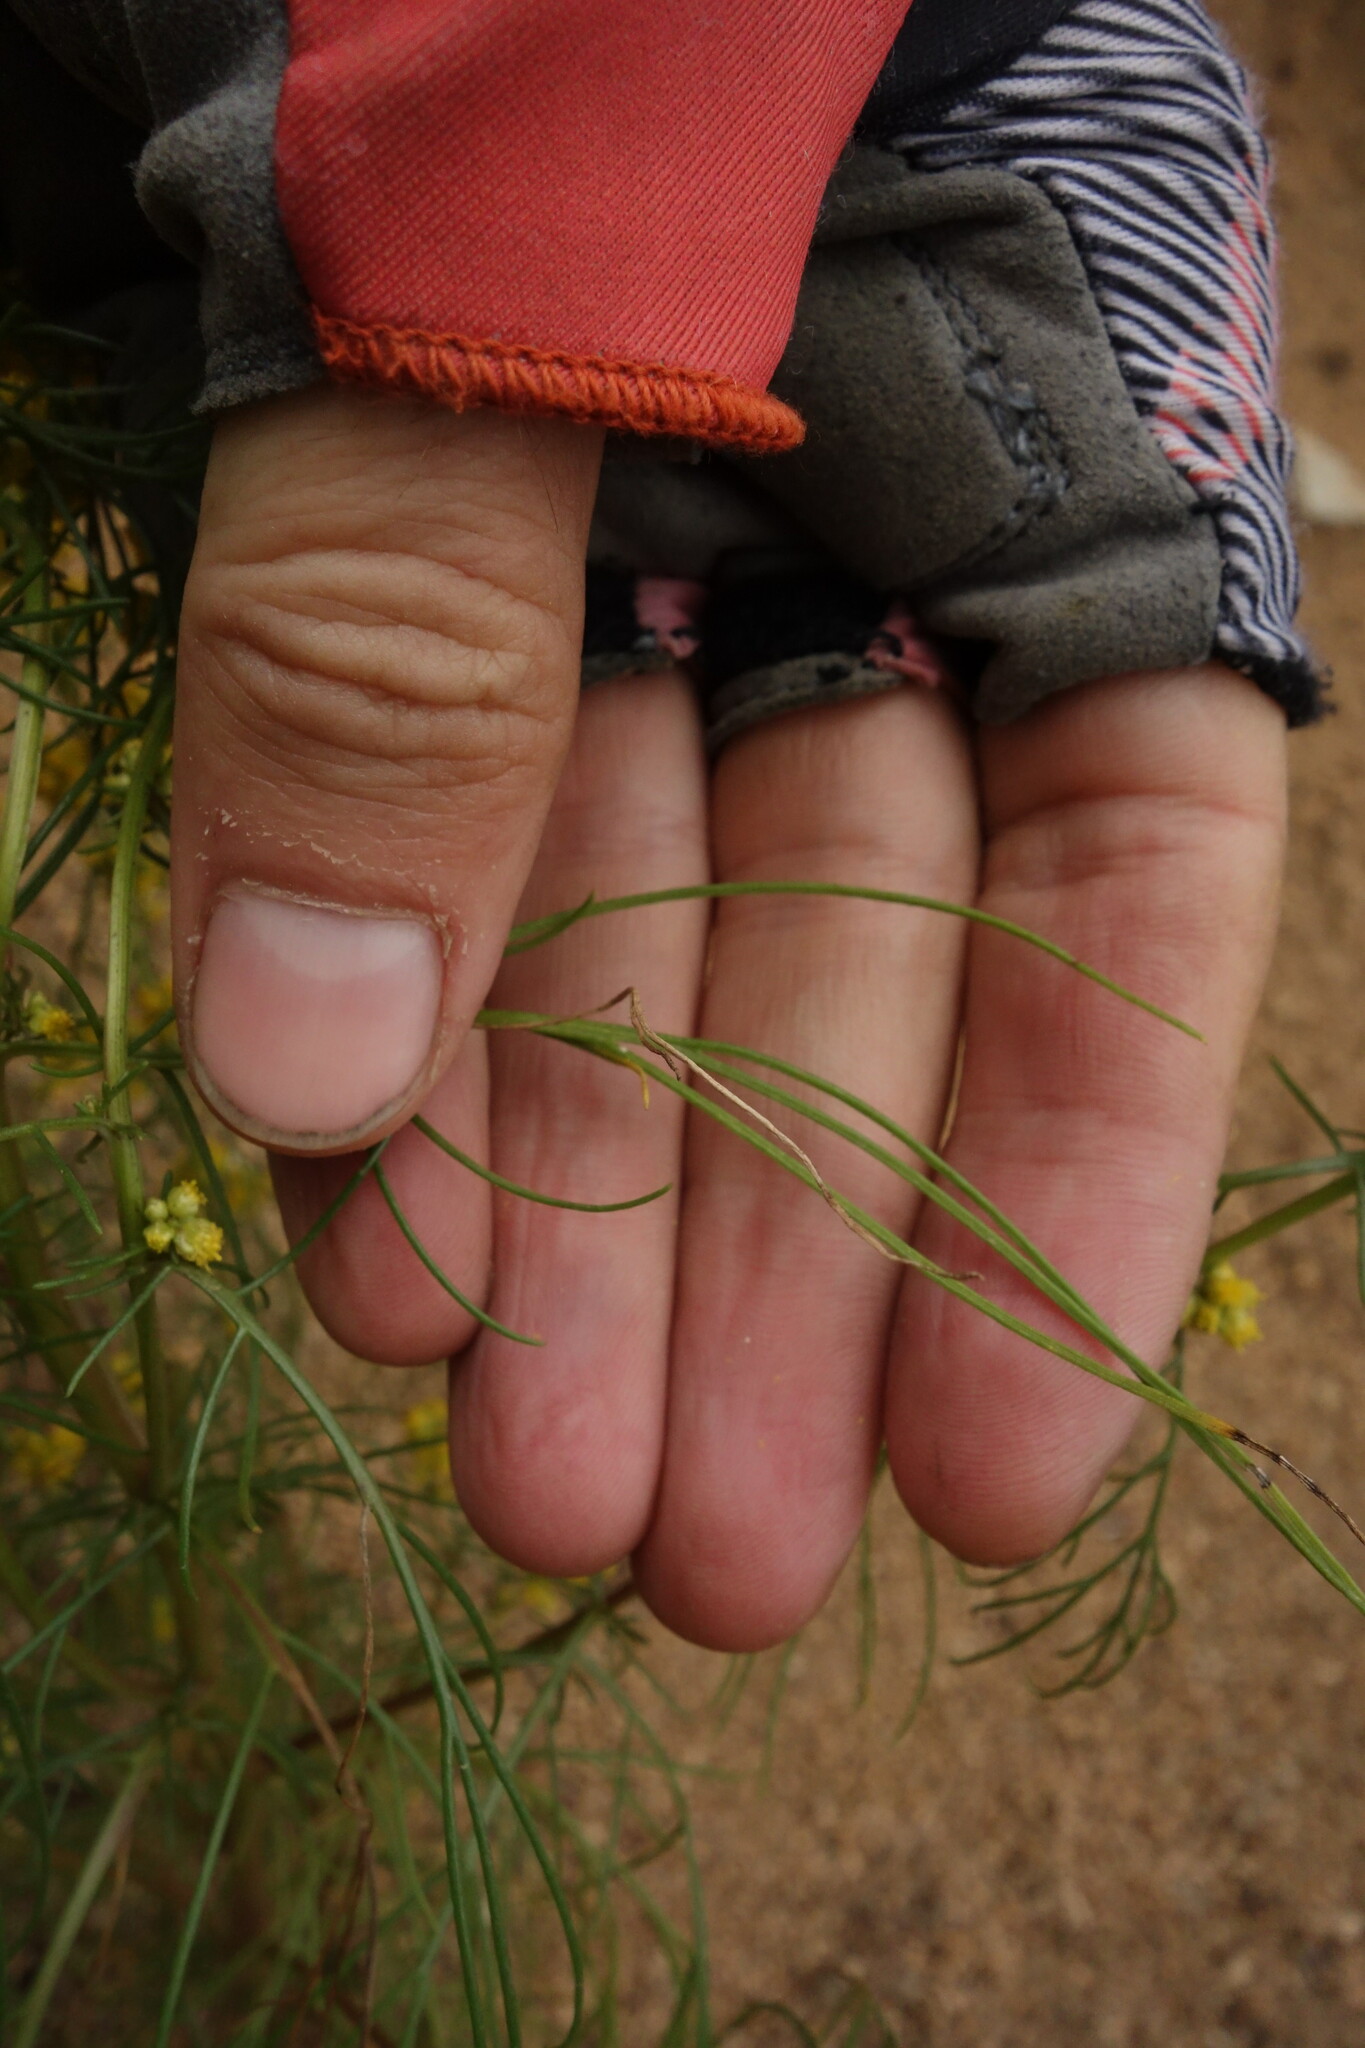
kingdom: Plantae
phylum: Tracheophyta
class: Magnoliopsida
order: Asterales
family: Asteraceae
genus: Artemisia
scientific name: Artemisia palustris
